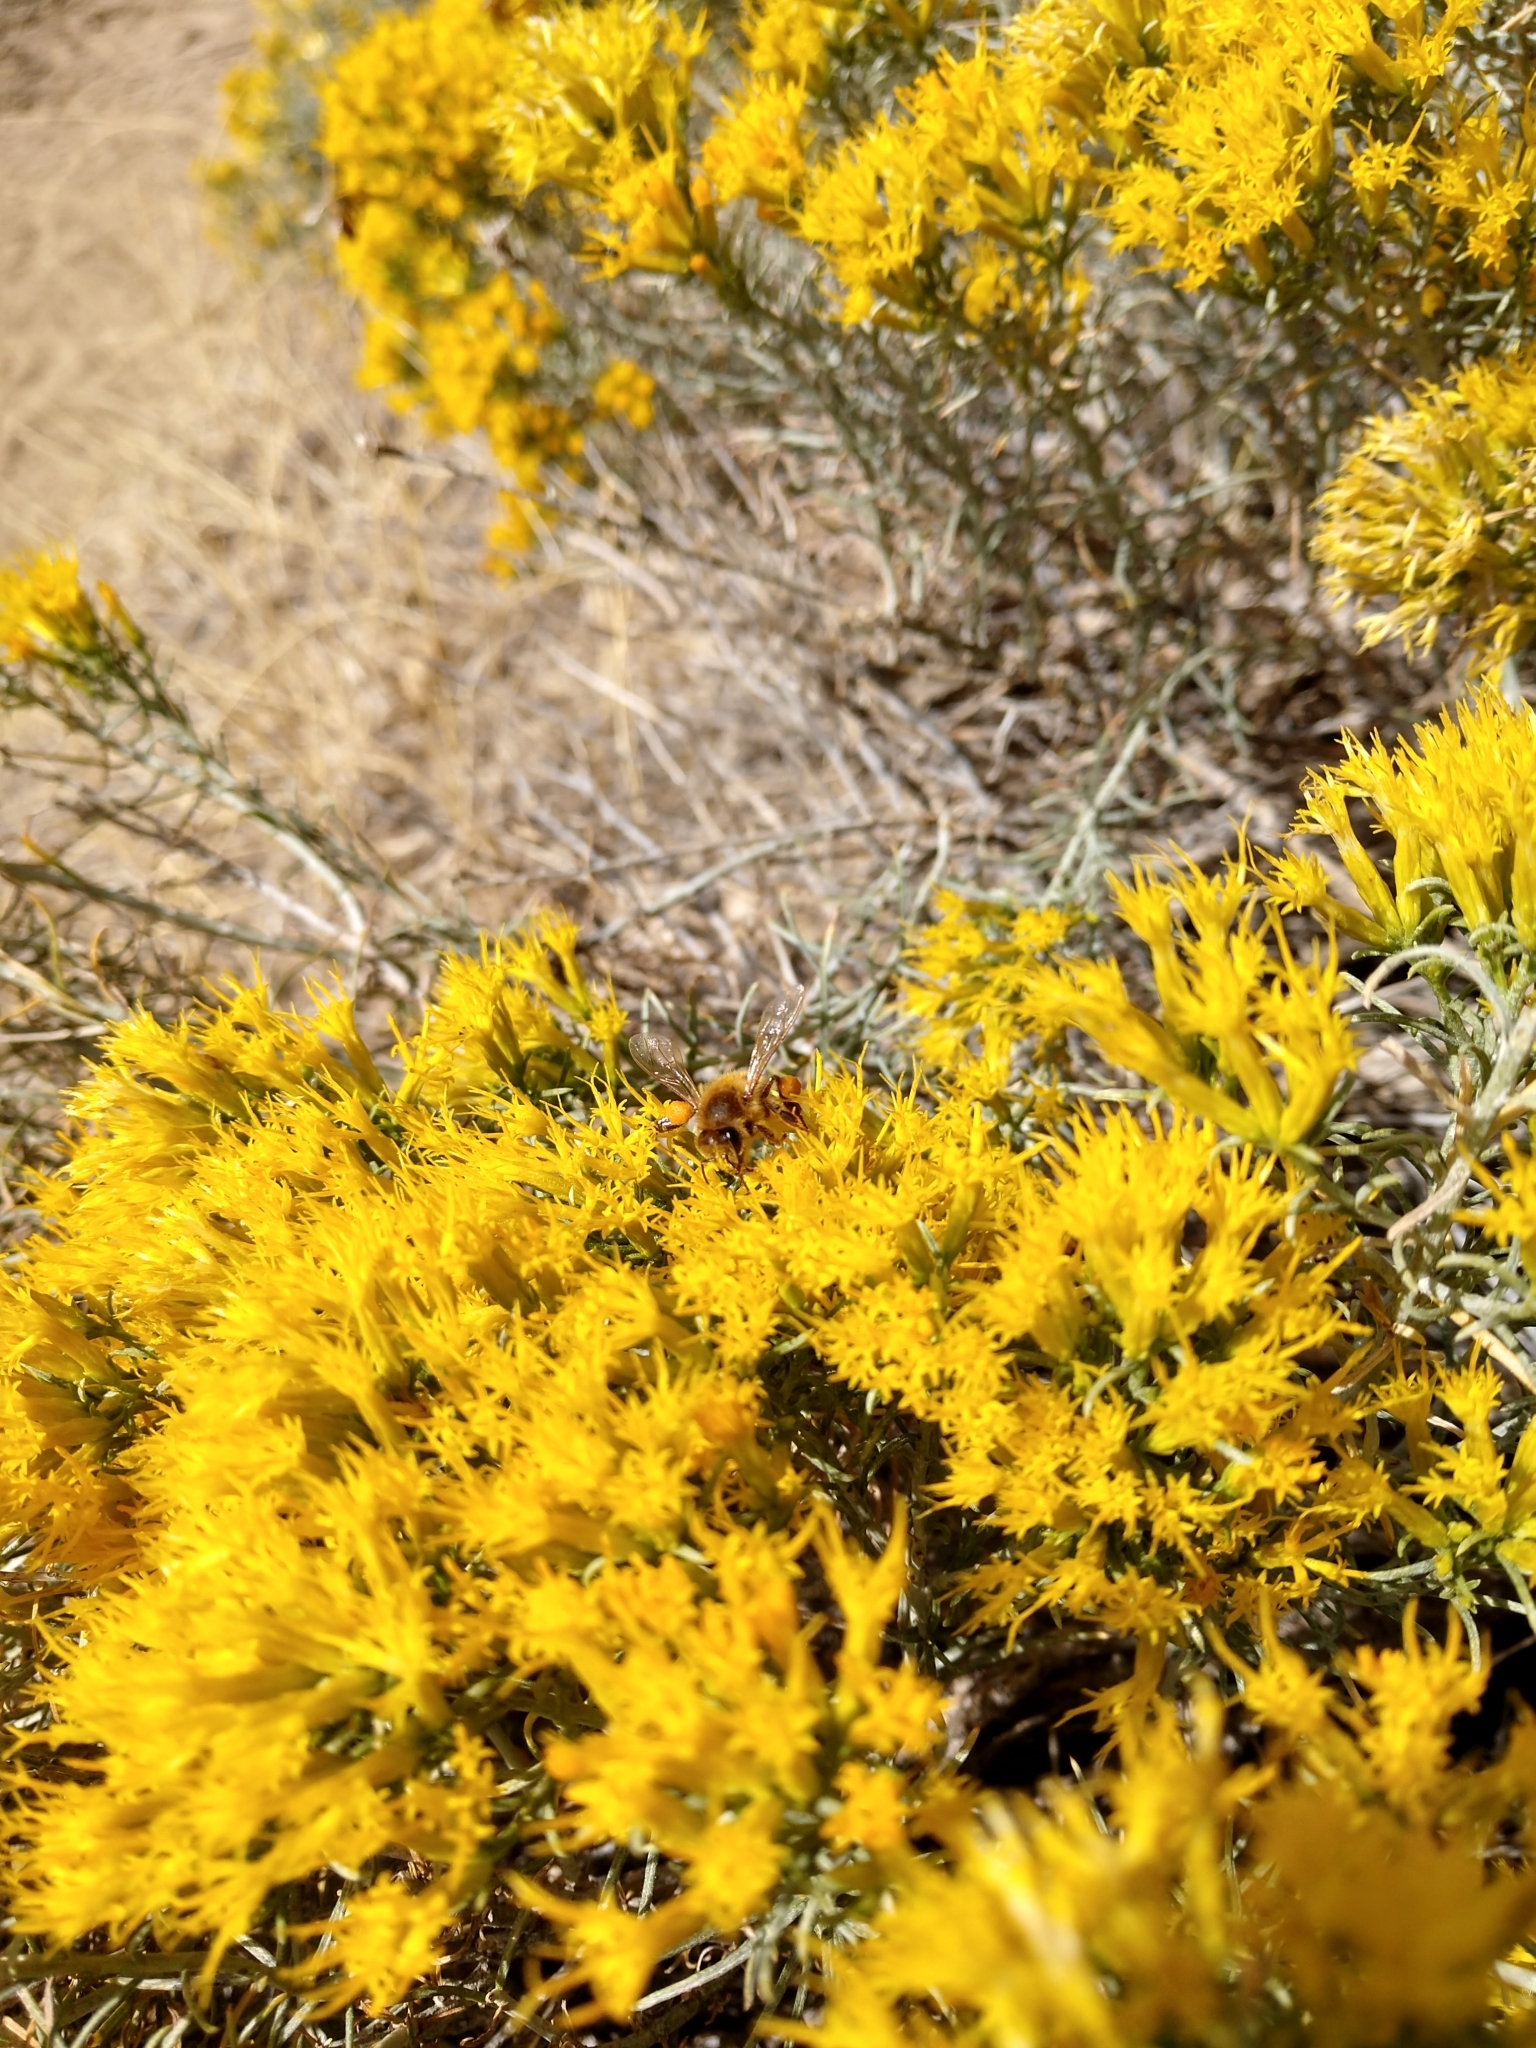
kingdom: Animalia
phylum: Arthropoda
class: Insecta
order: Hymenoptera
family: Apidae
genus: Apis
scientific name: Apis mellifera
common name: Honey bee
